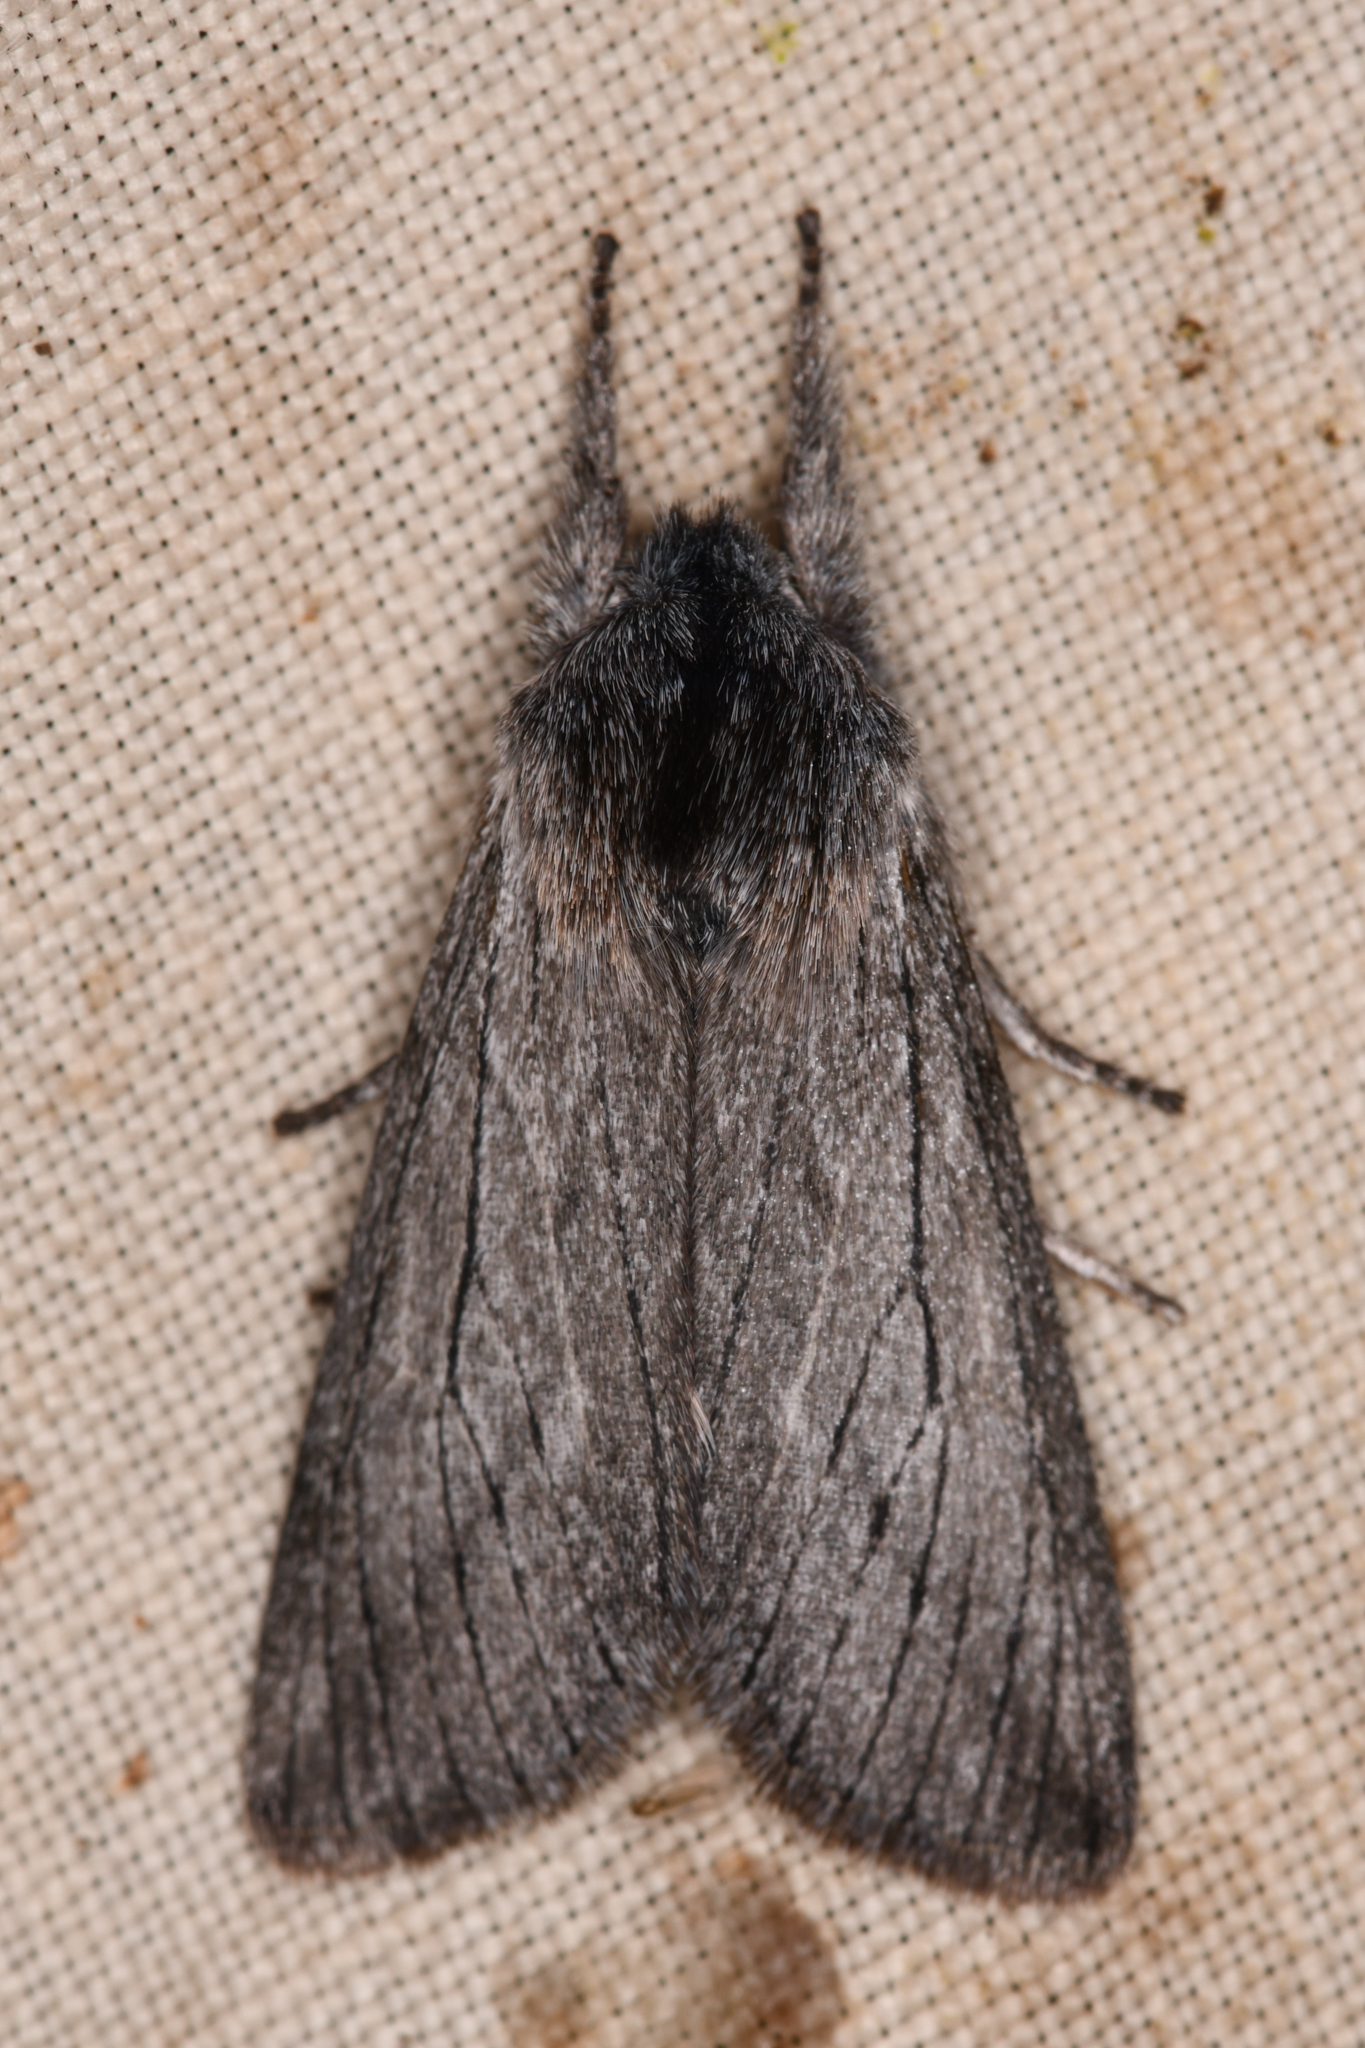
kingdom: Animalia
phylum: Arthropoda
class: Insecta
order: Lepidoptera
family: Noctuidae
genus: Pleromella
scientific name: Pleromella opter
